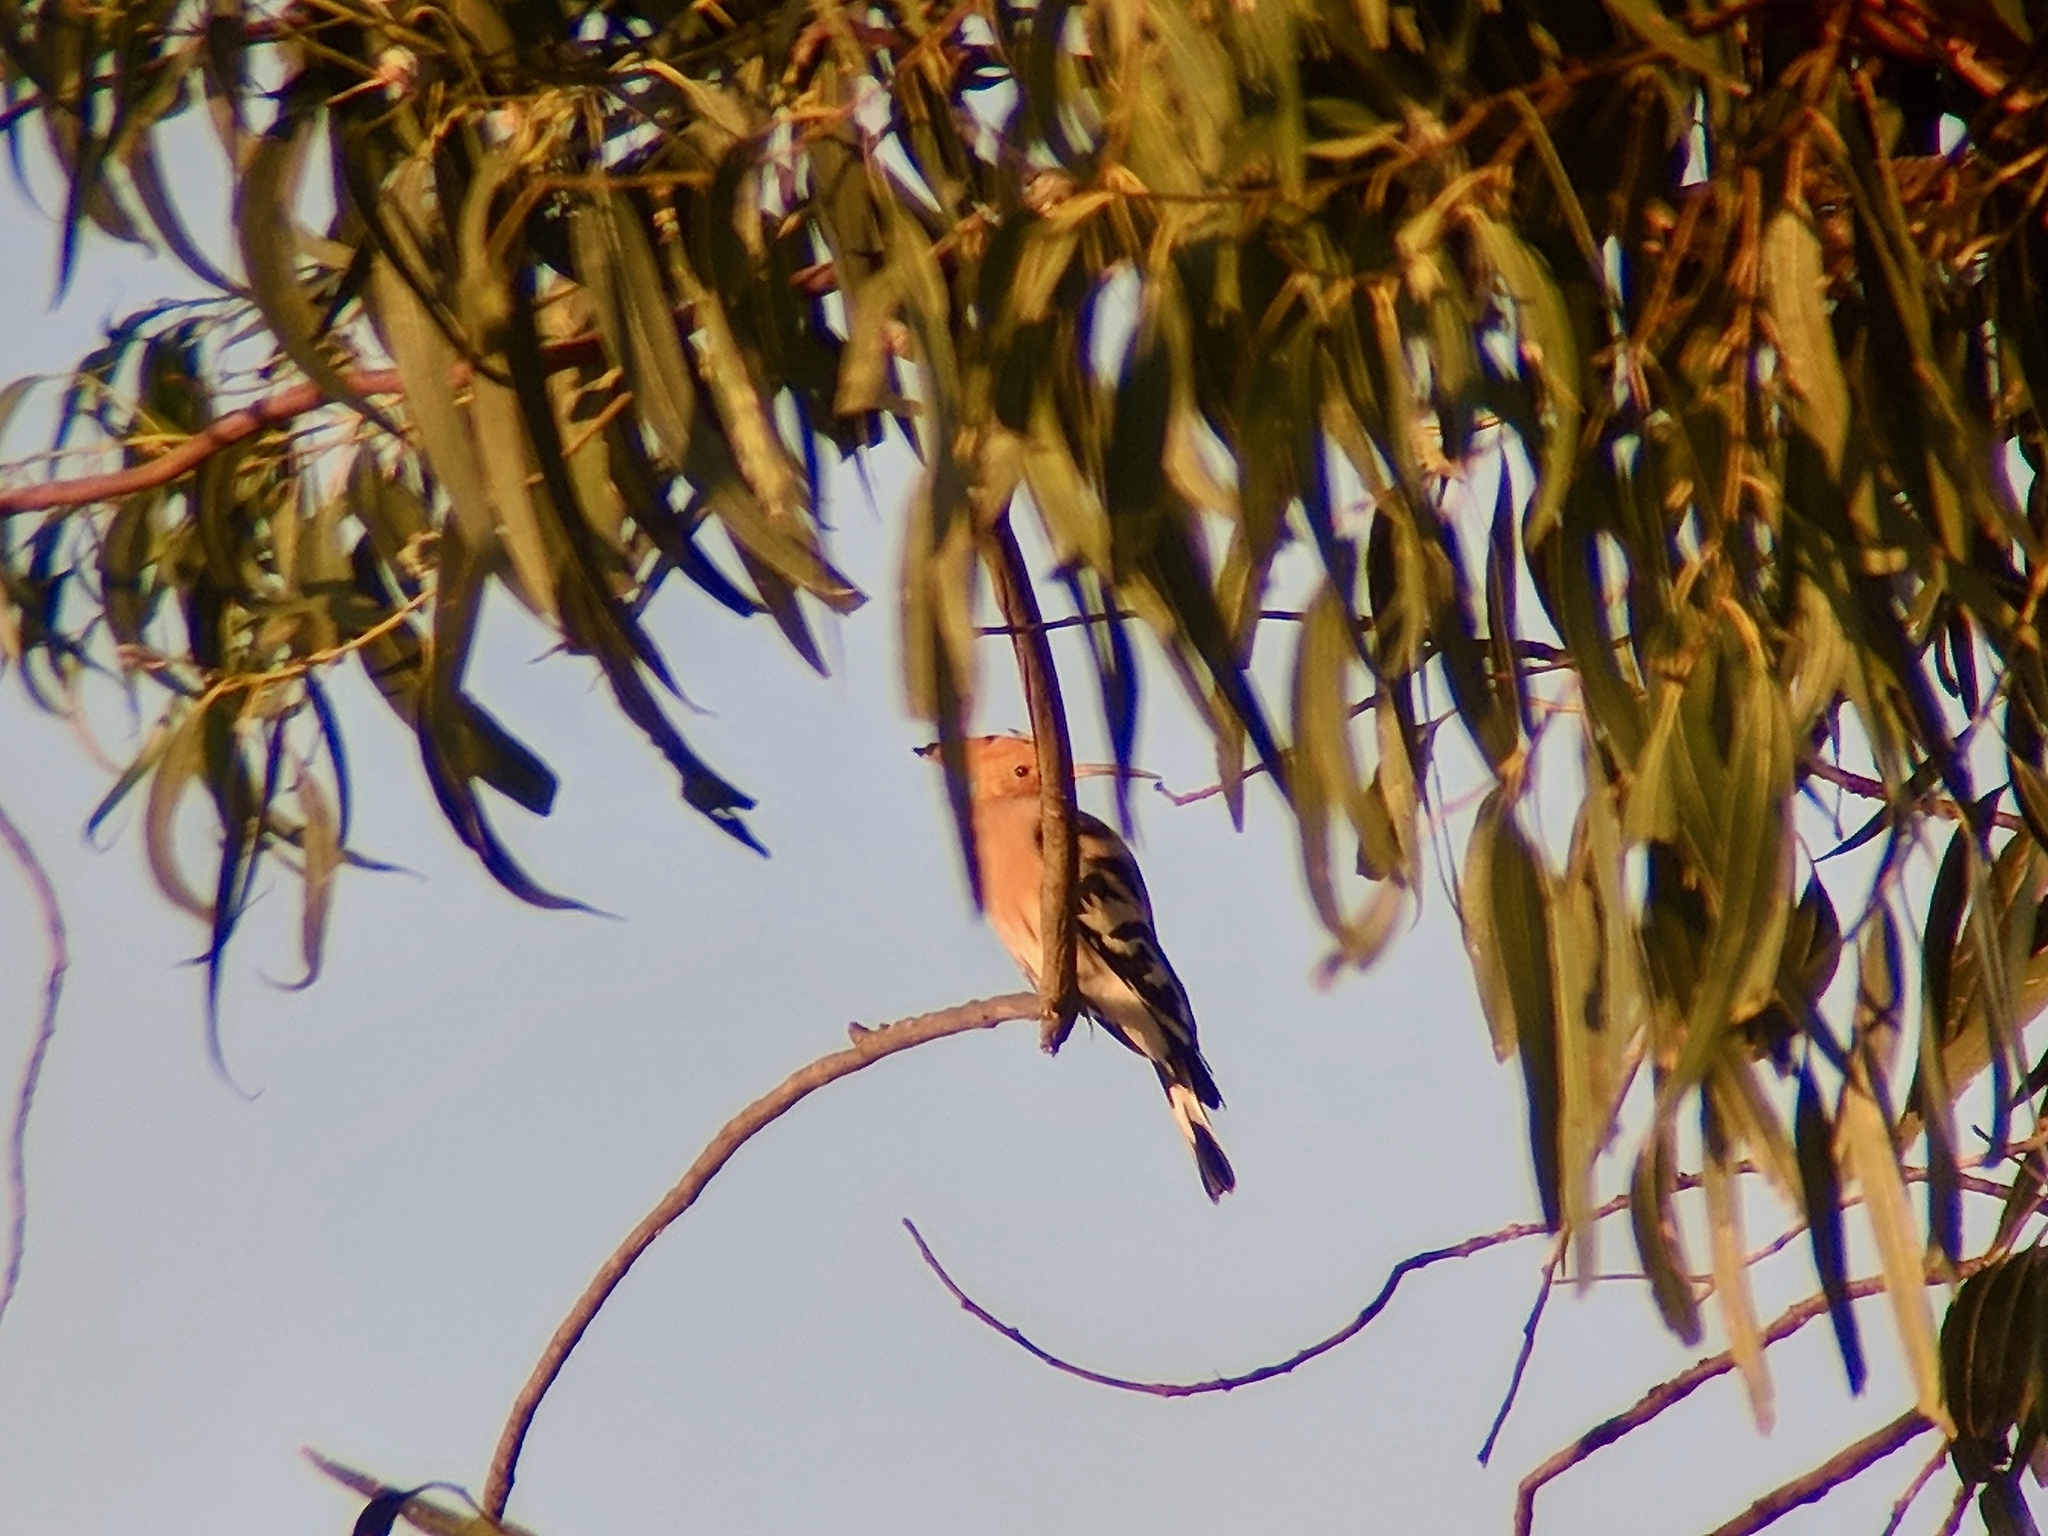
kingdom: Animalia
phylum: Chordata
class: Aves
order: Bucerotiformes
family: Upupidae
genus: Upupa
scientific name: Upupa epops
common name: Eurasian hoopoe
